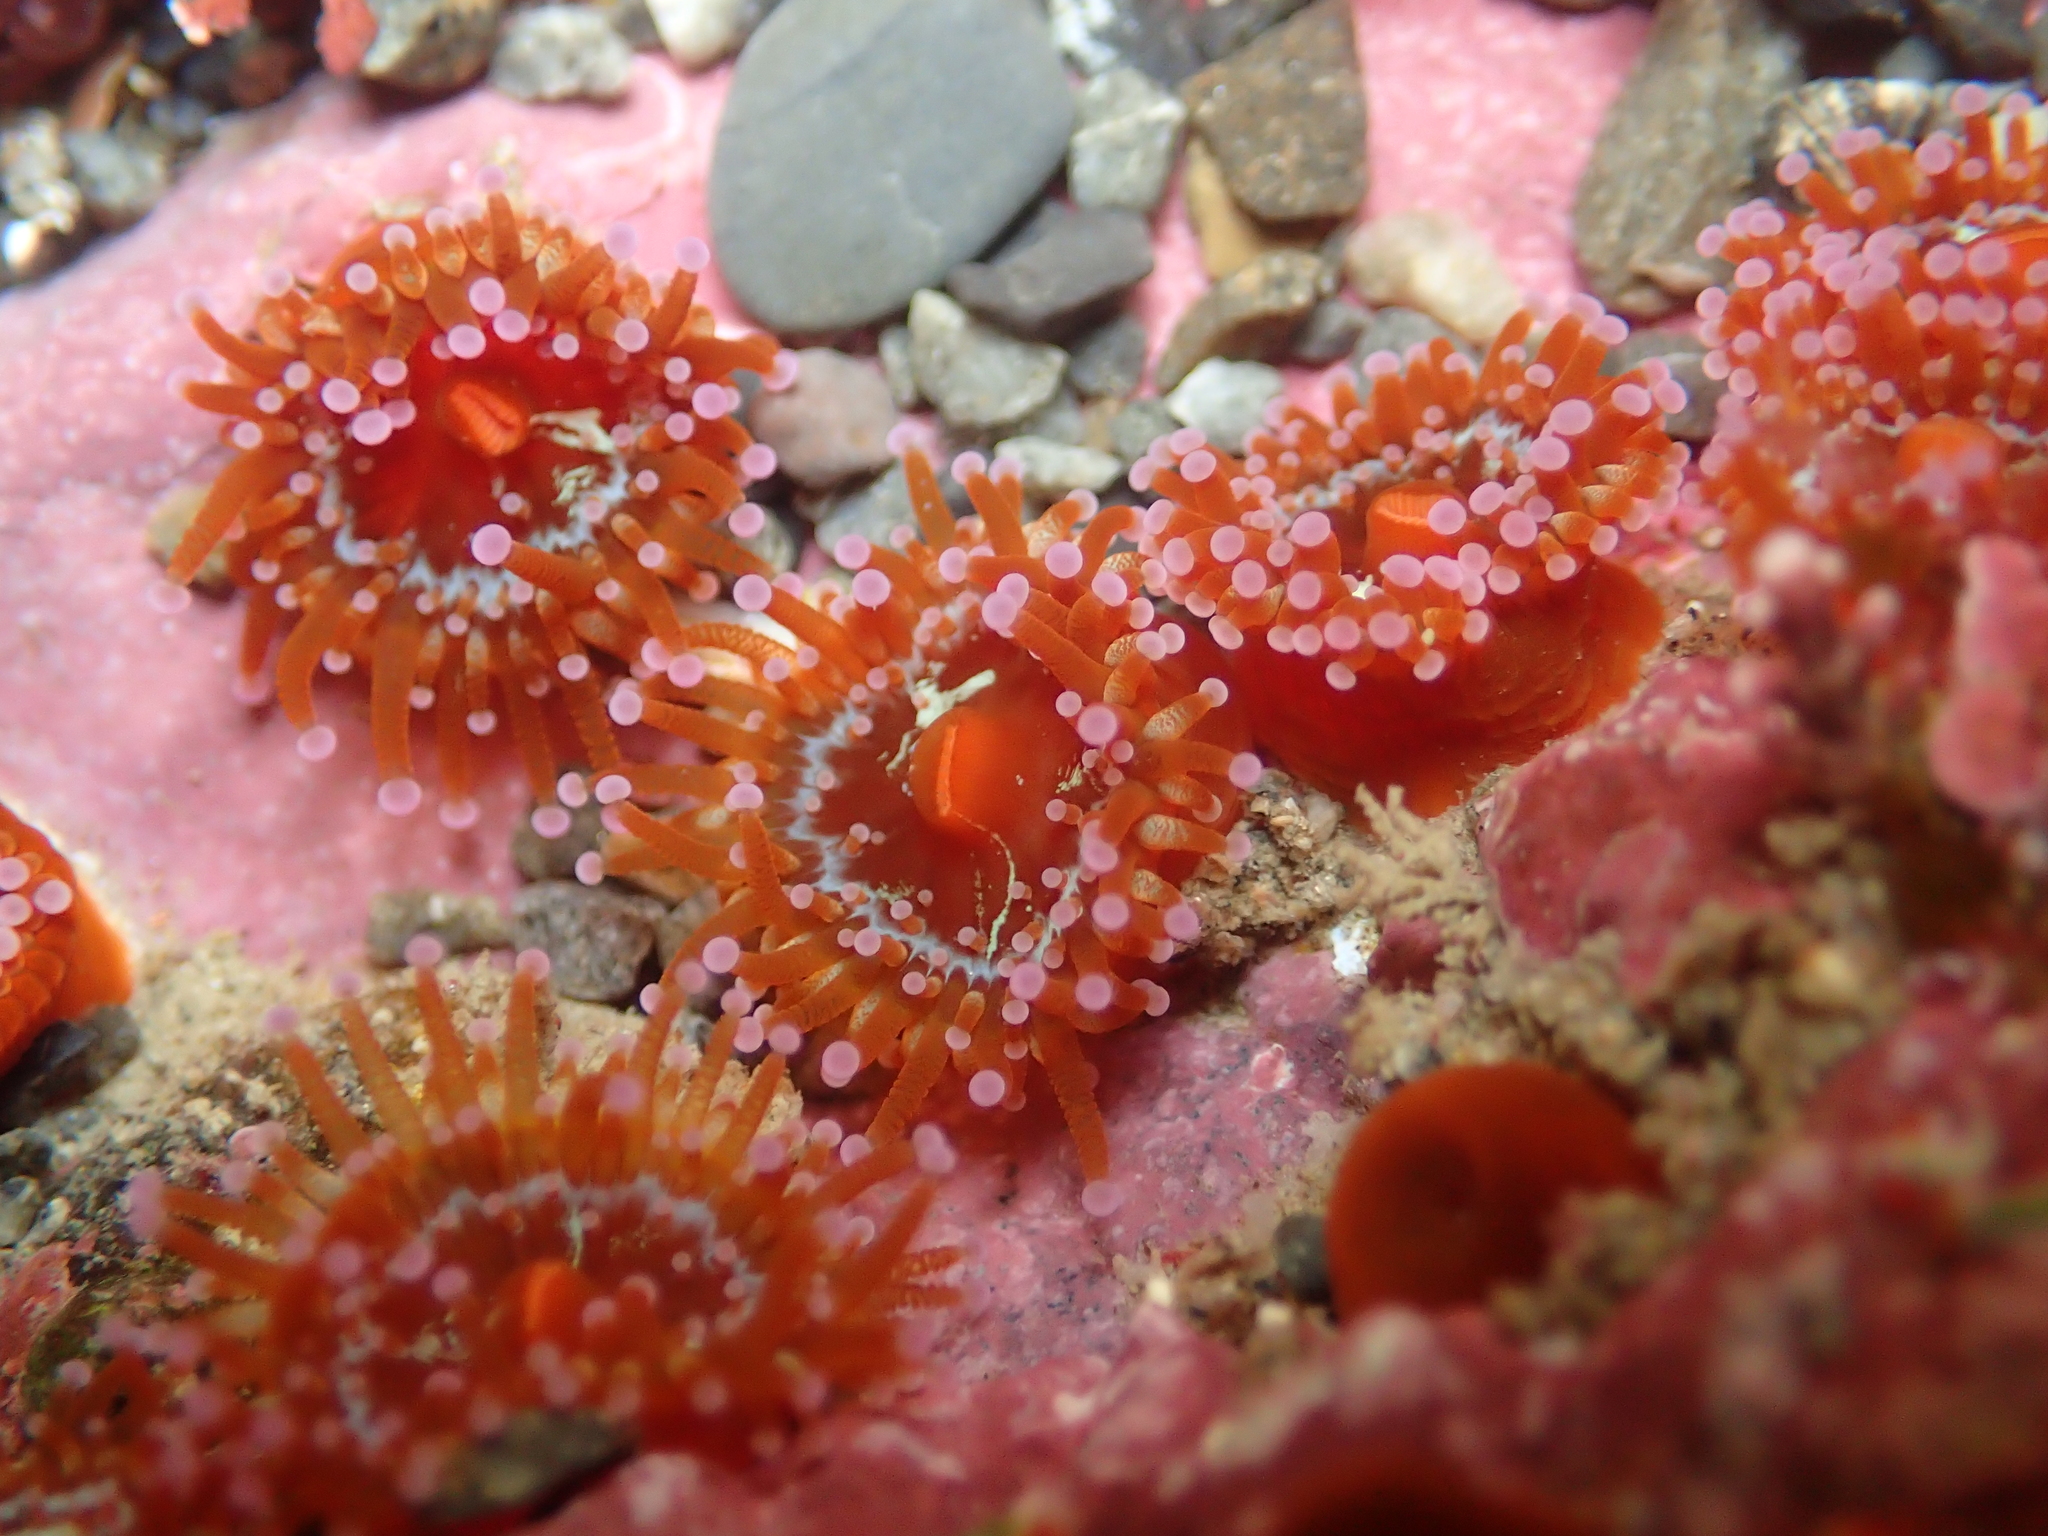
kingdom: Animalia
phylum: Cnidaria
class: Anthozoa
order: Corallimorpharia
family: Corallimorphidae
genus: Corynactis
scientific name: Corynactis australis
